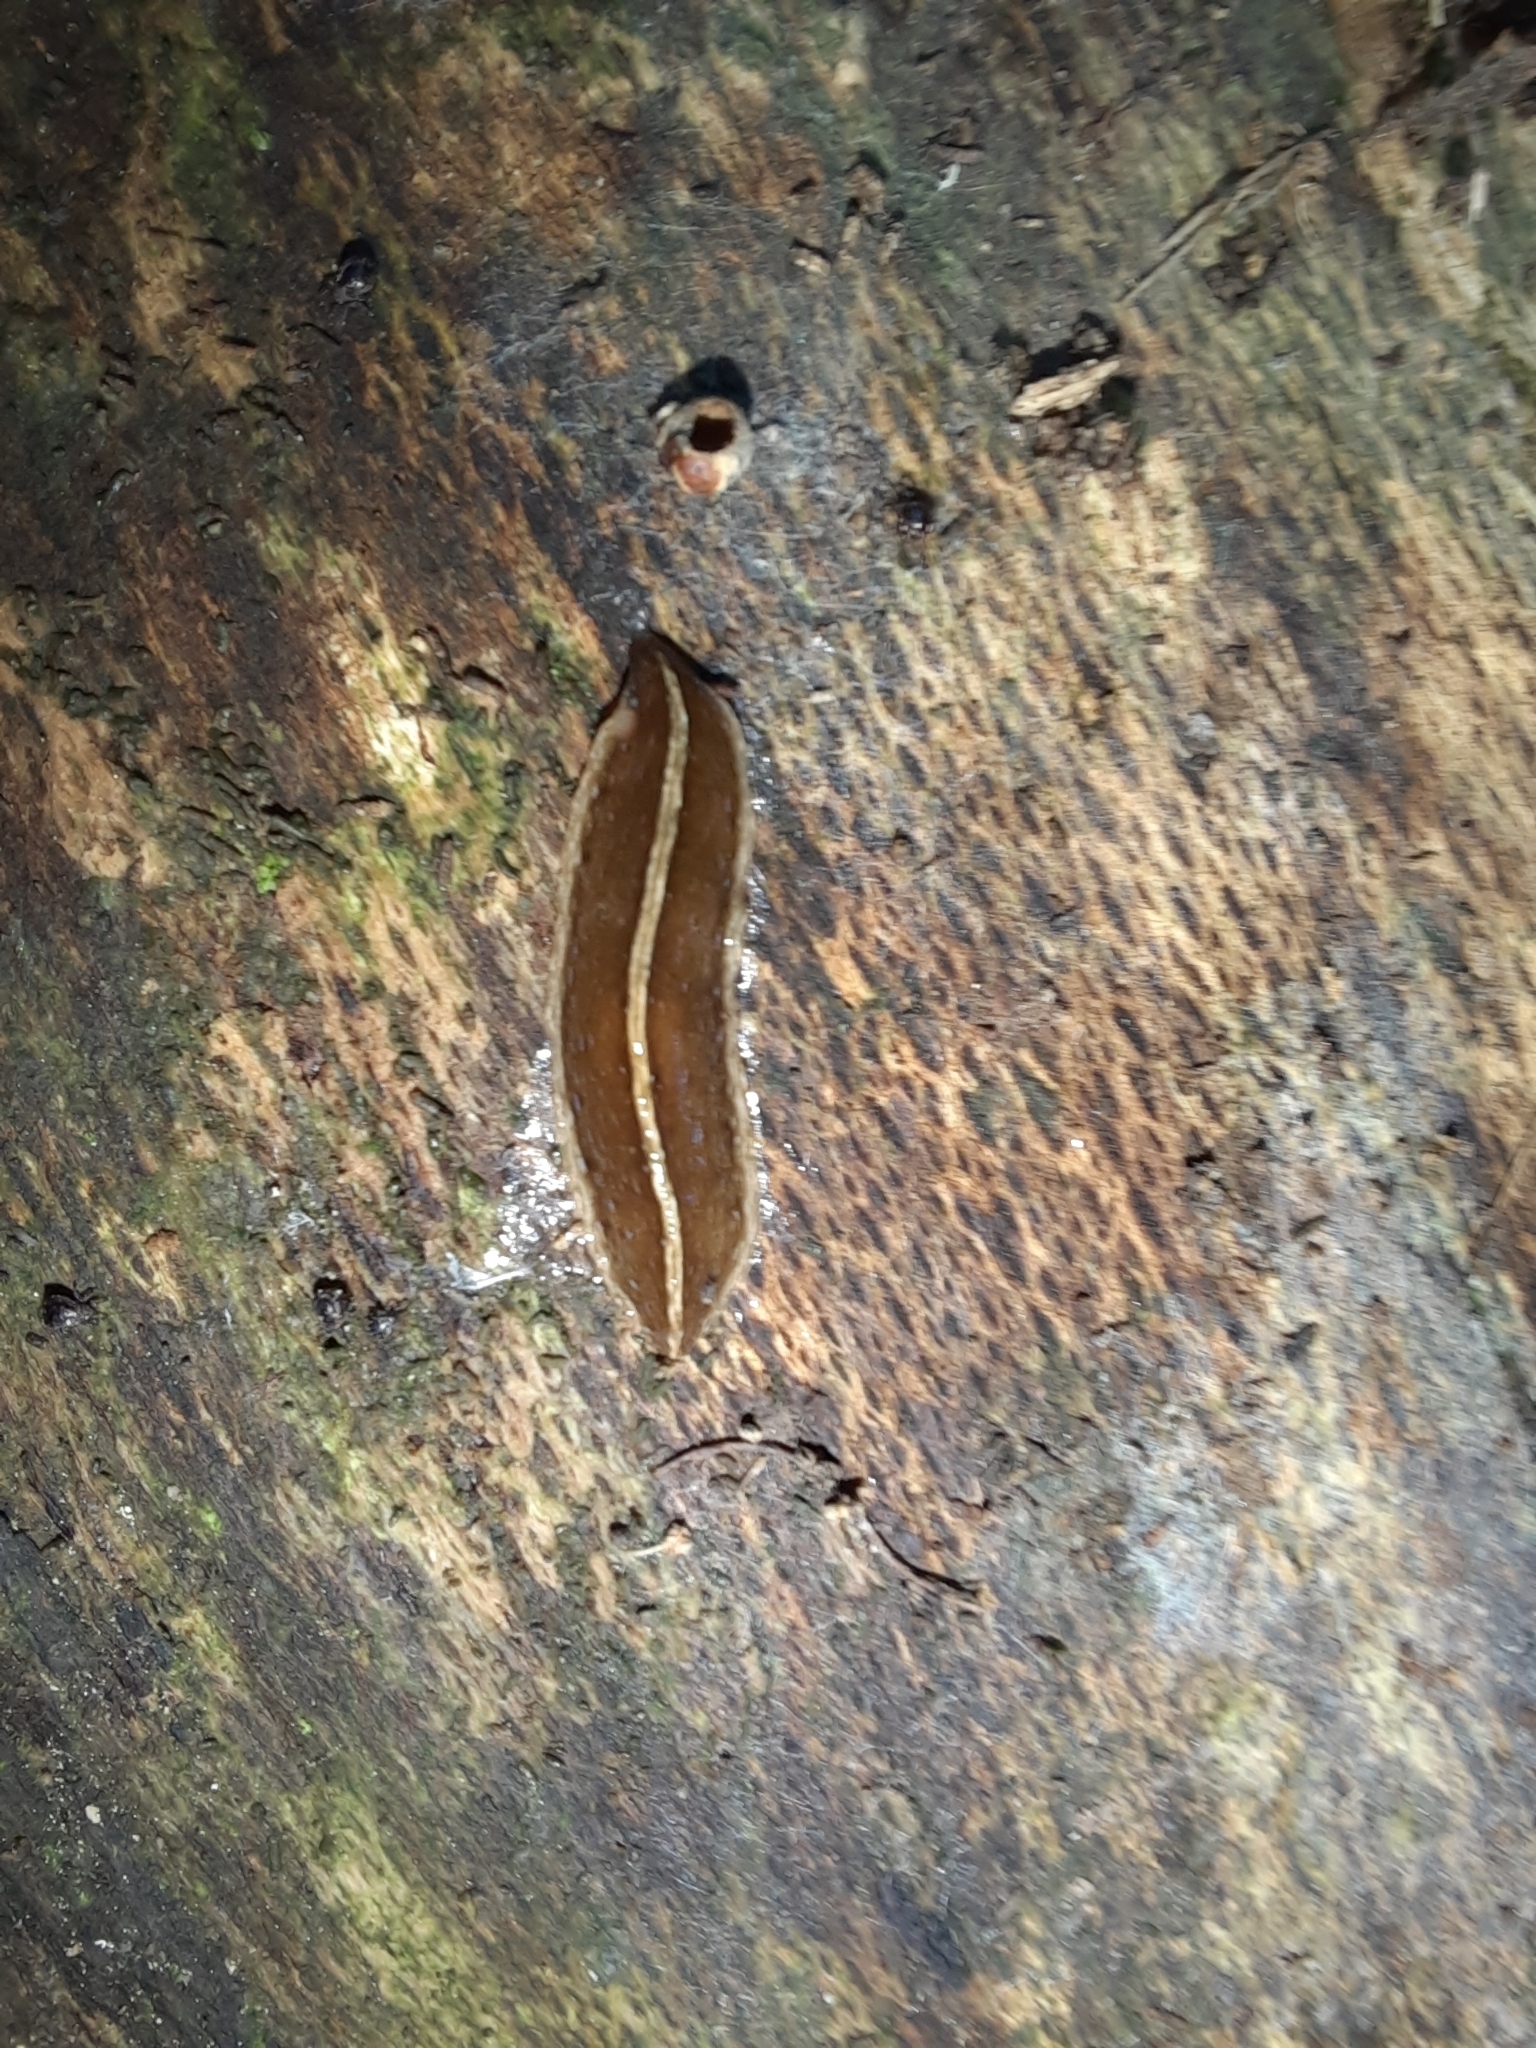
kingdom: Animalia
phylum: Platyhelminthes
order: Tricladida
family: Geoplanidae
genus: Newzealandia
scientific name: Newzealandia graffii
